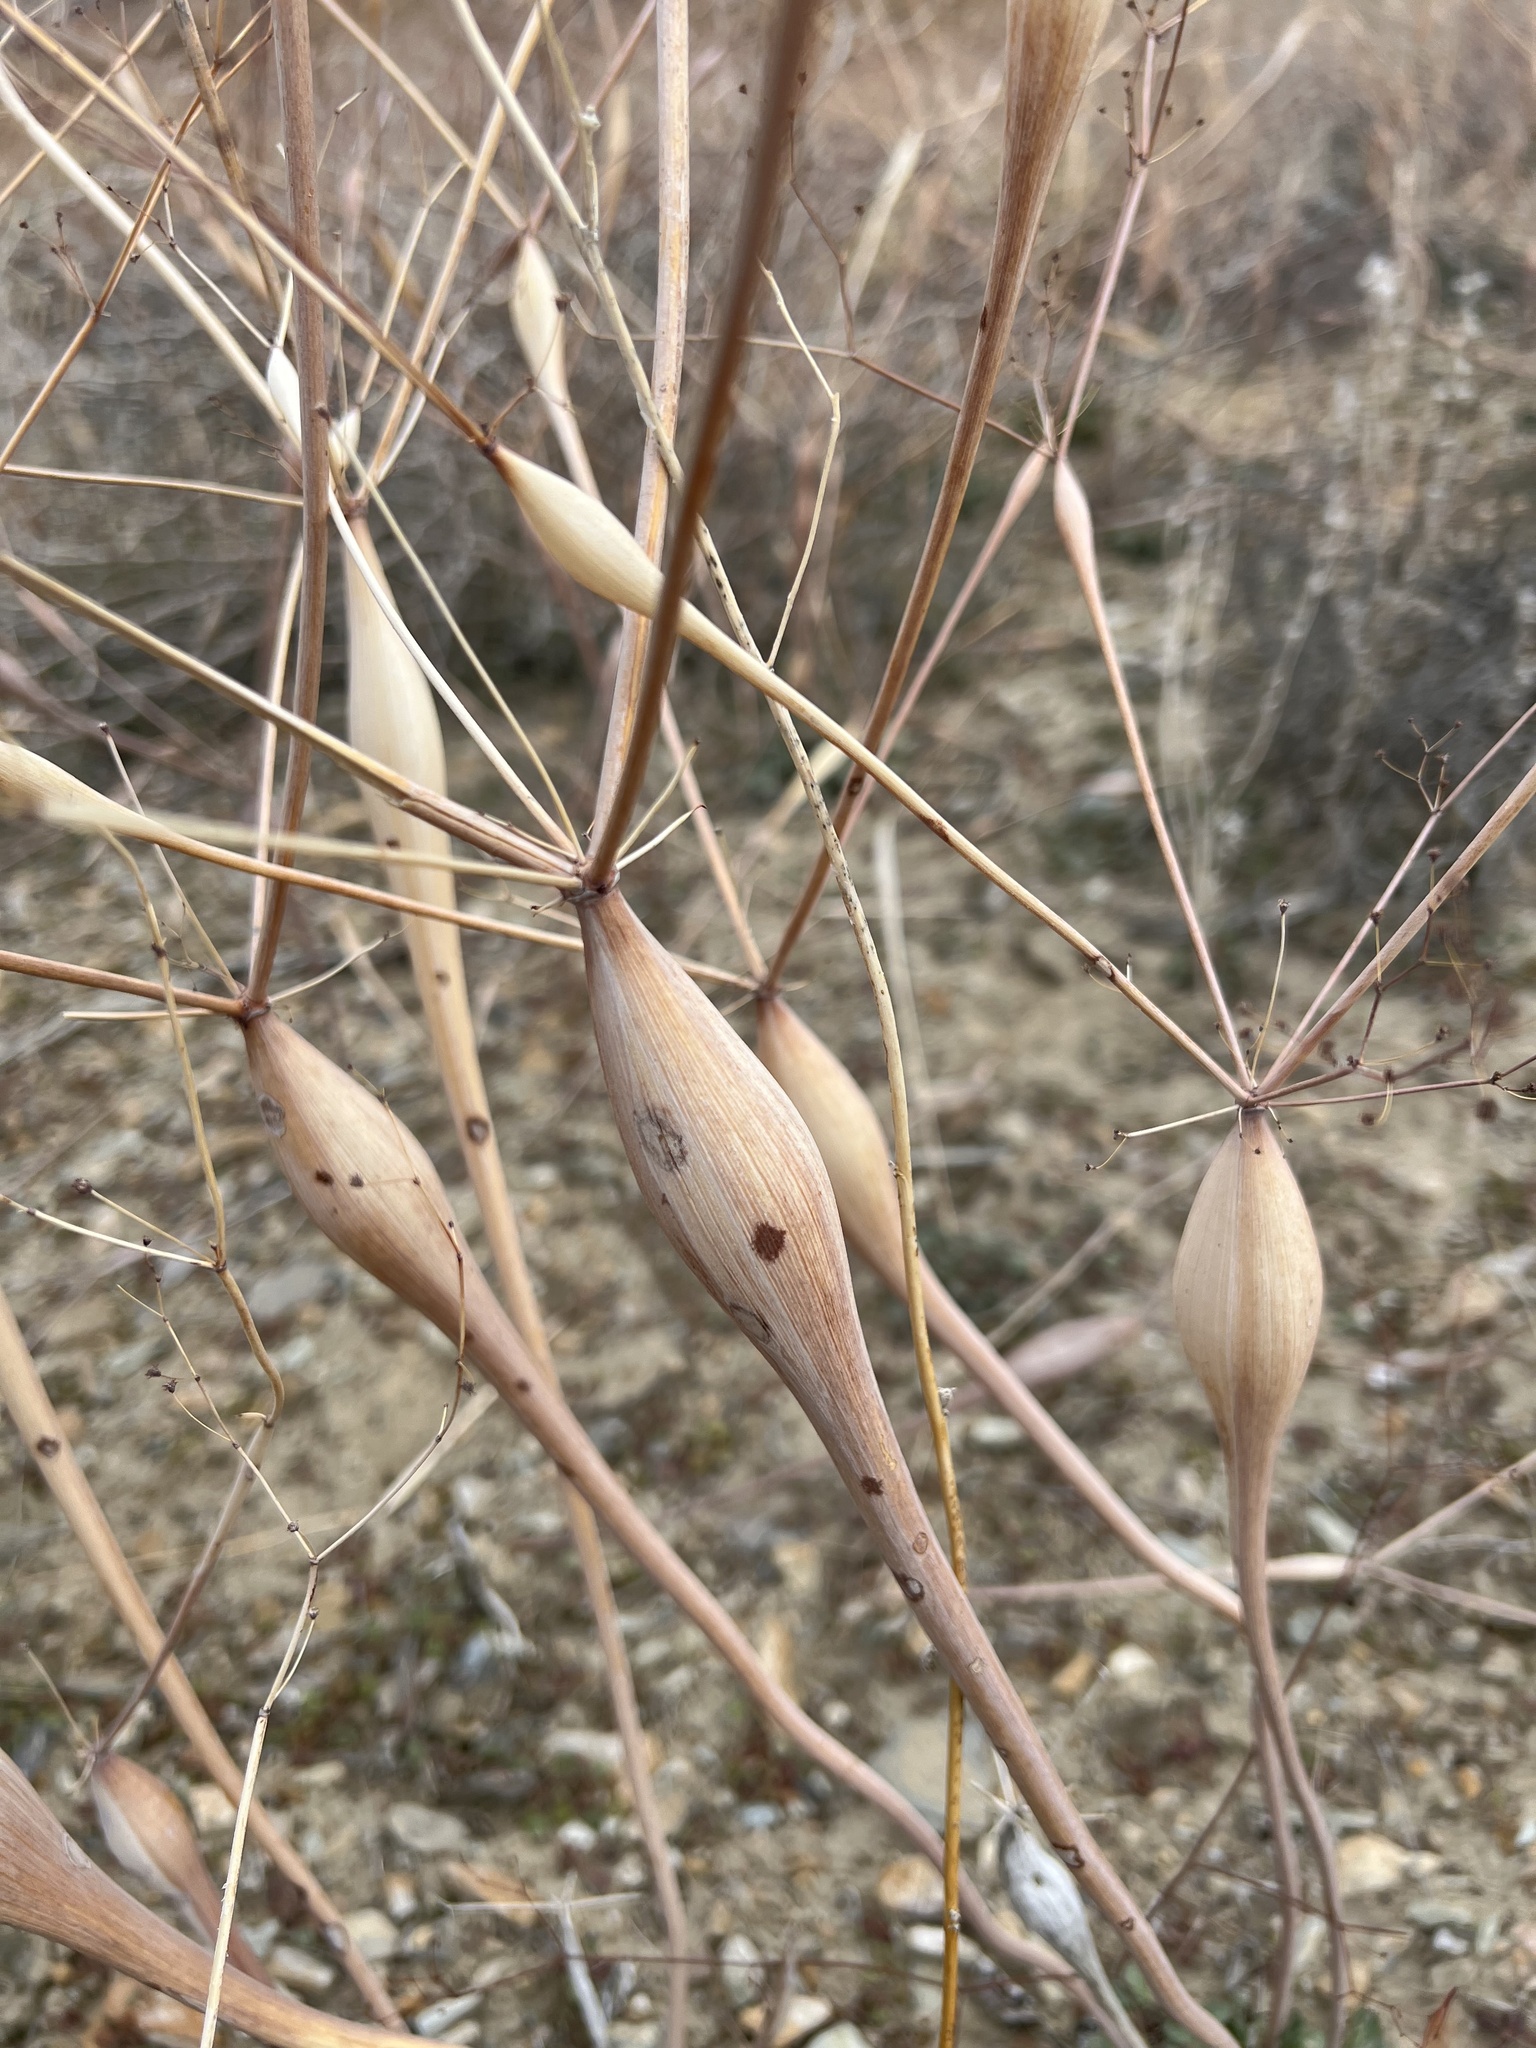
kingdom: Plantae
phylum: Tracheophyta
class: Magnoliopsida
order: Caryophyllales
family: Polygonaceae
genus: Eriogonum
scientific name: Eriogonum inflatum
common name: Desert trumpet
